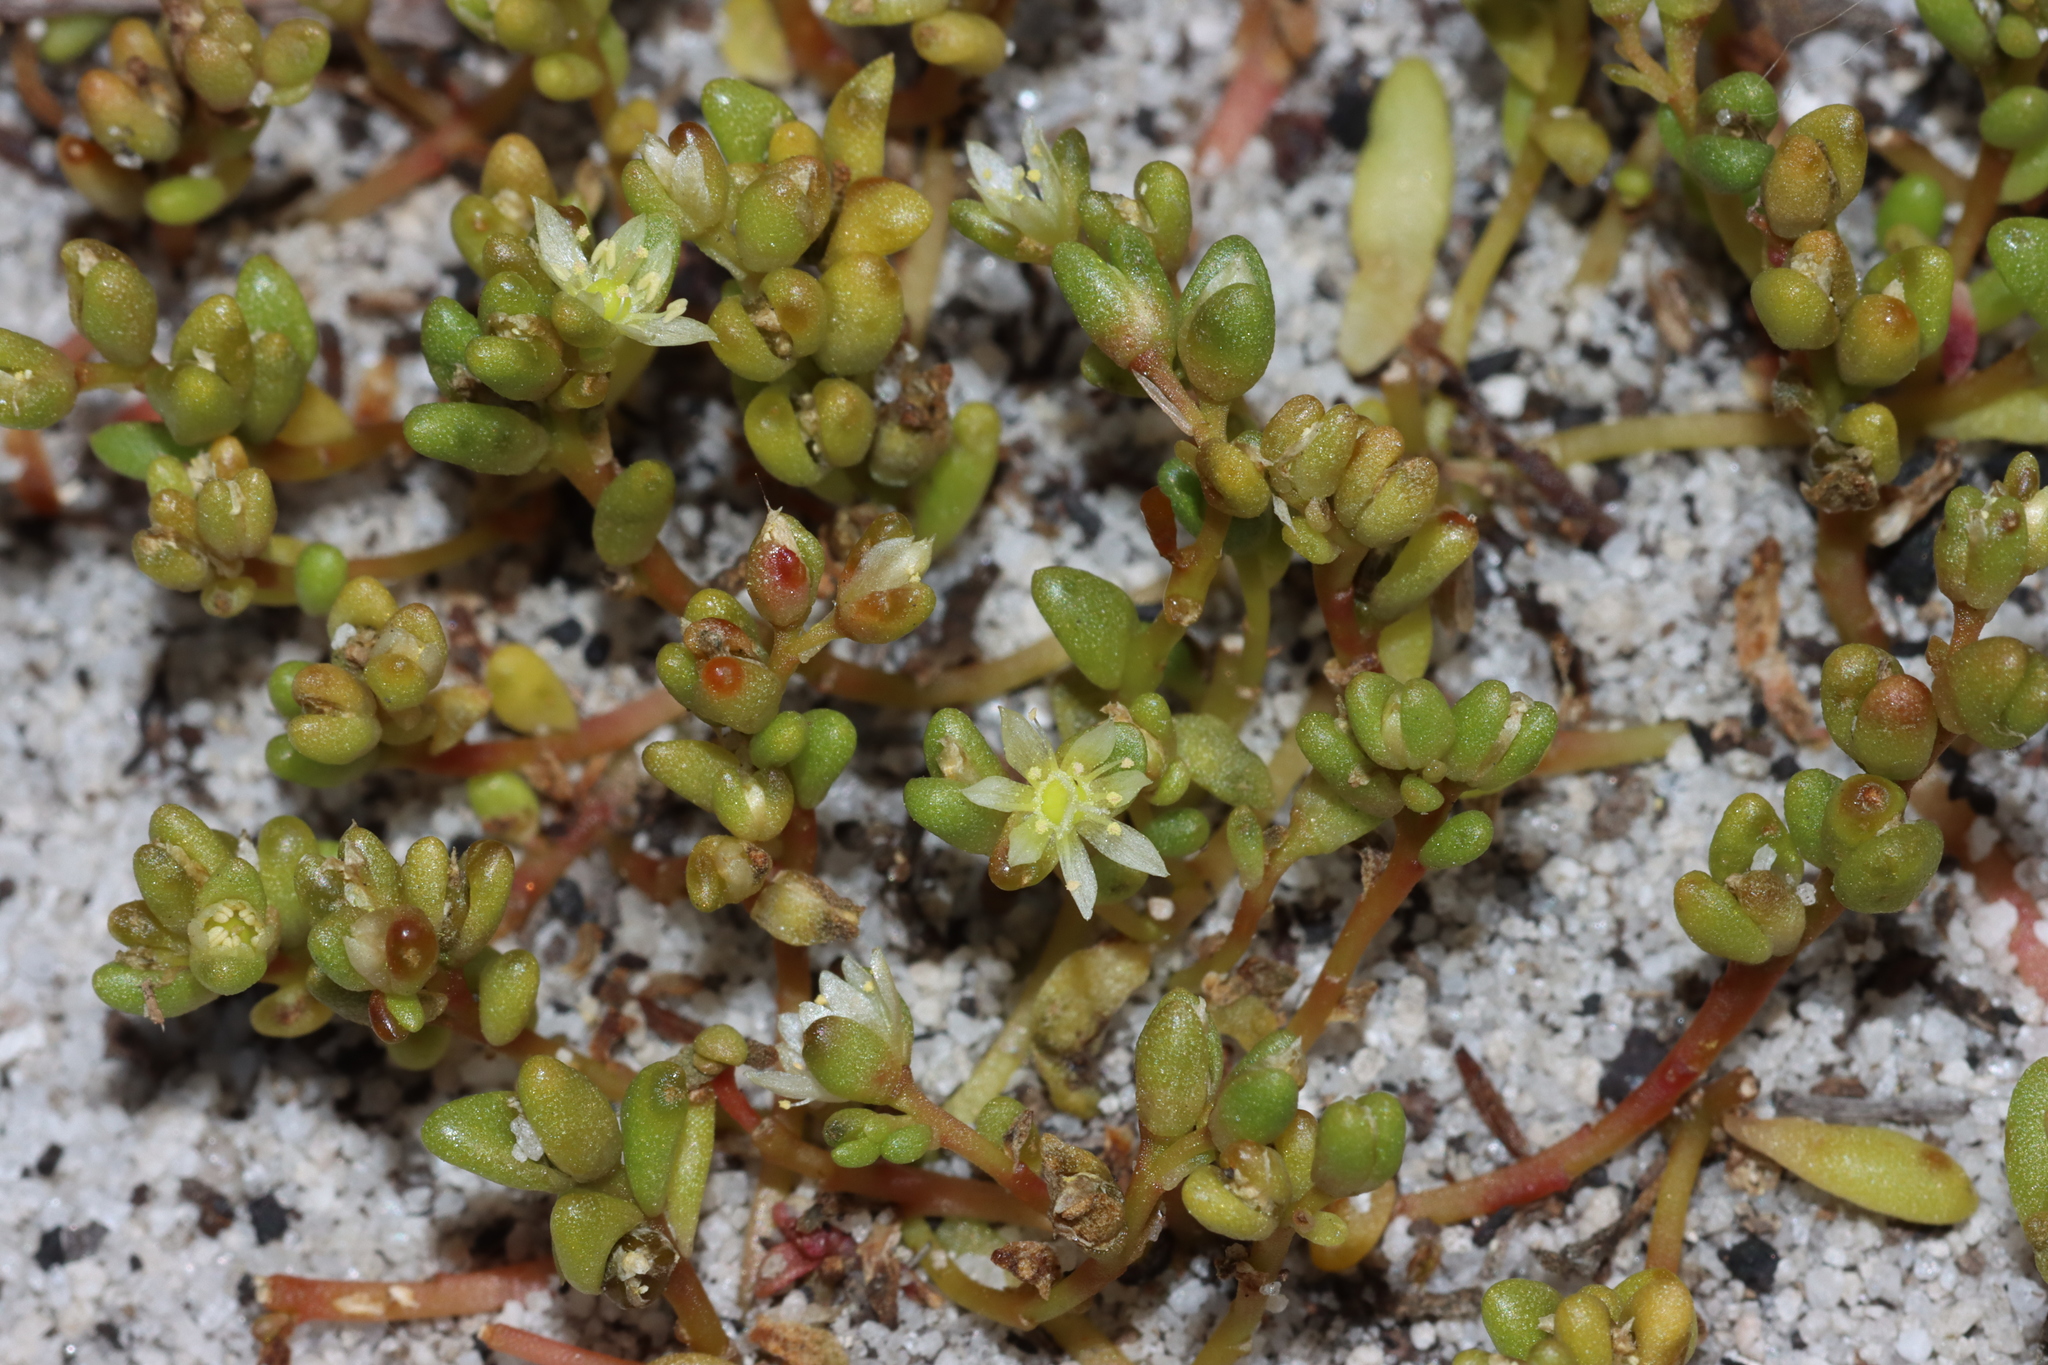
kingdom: Plantae
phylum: Tracheophyta
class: Magnoliopsida
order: Caryophyllales
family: Montiaceae
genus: Rumicastrum
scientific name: Rumicastrum granuliferum
